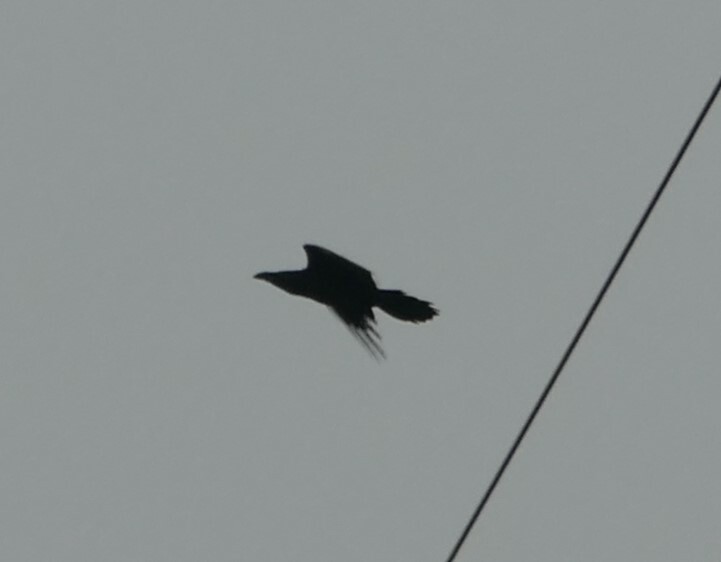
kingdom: Animalia
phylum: Chordata
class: Aves
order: Passeriformes
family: Corvidae
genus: Corvus
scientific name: Corvus corax
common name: Common raven
